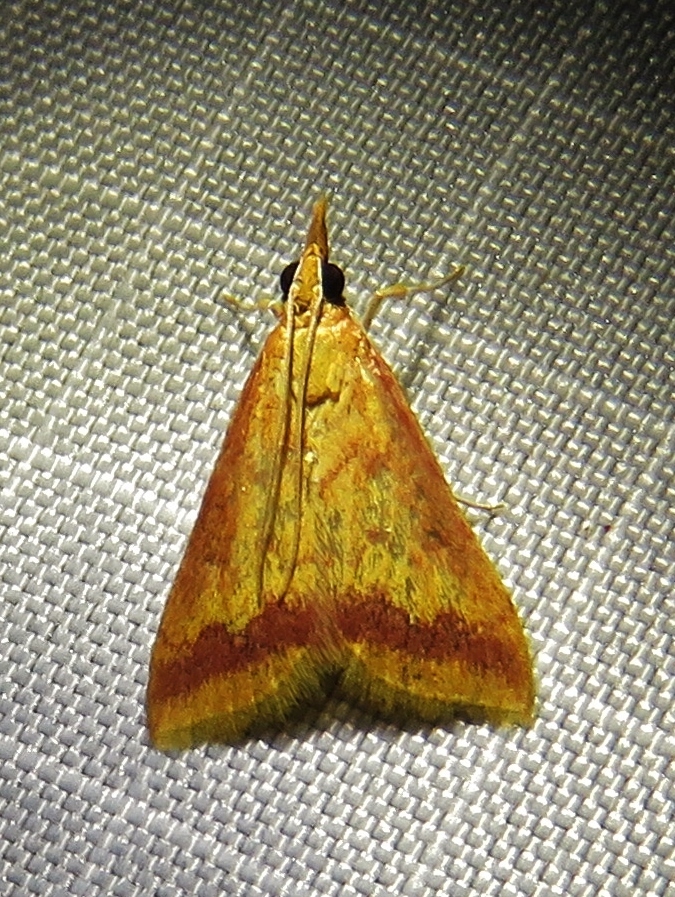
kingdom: Animalia
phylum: Arthropoda
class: Insecta
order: Lepidoptera
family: Crambidae
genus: Hyalorista
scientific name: Hyalorista taeniolalis
